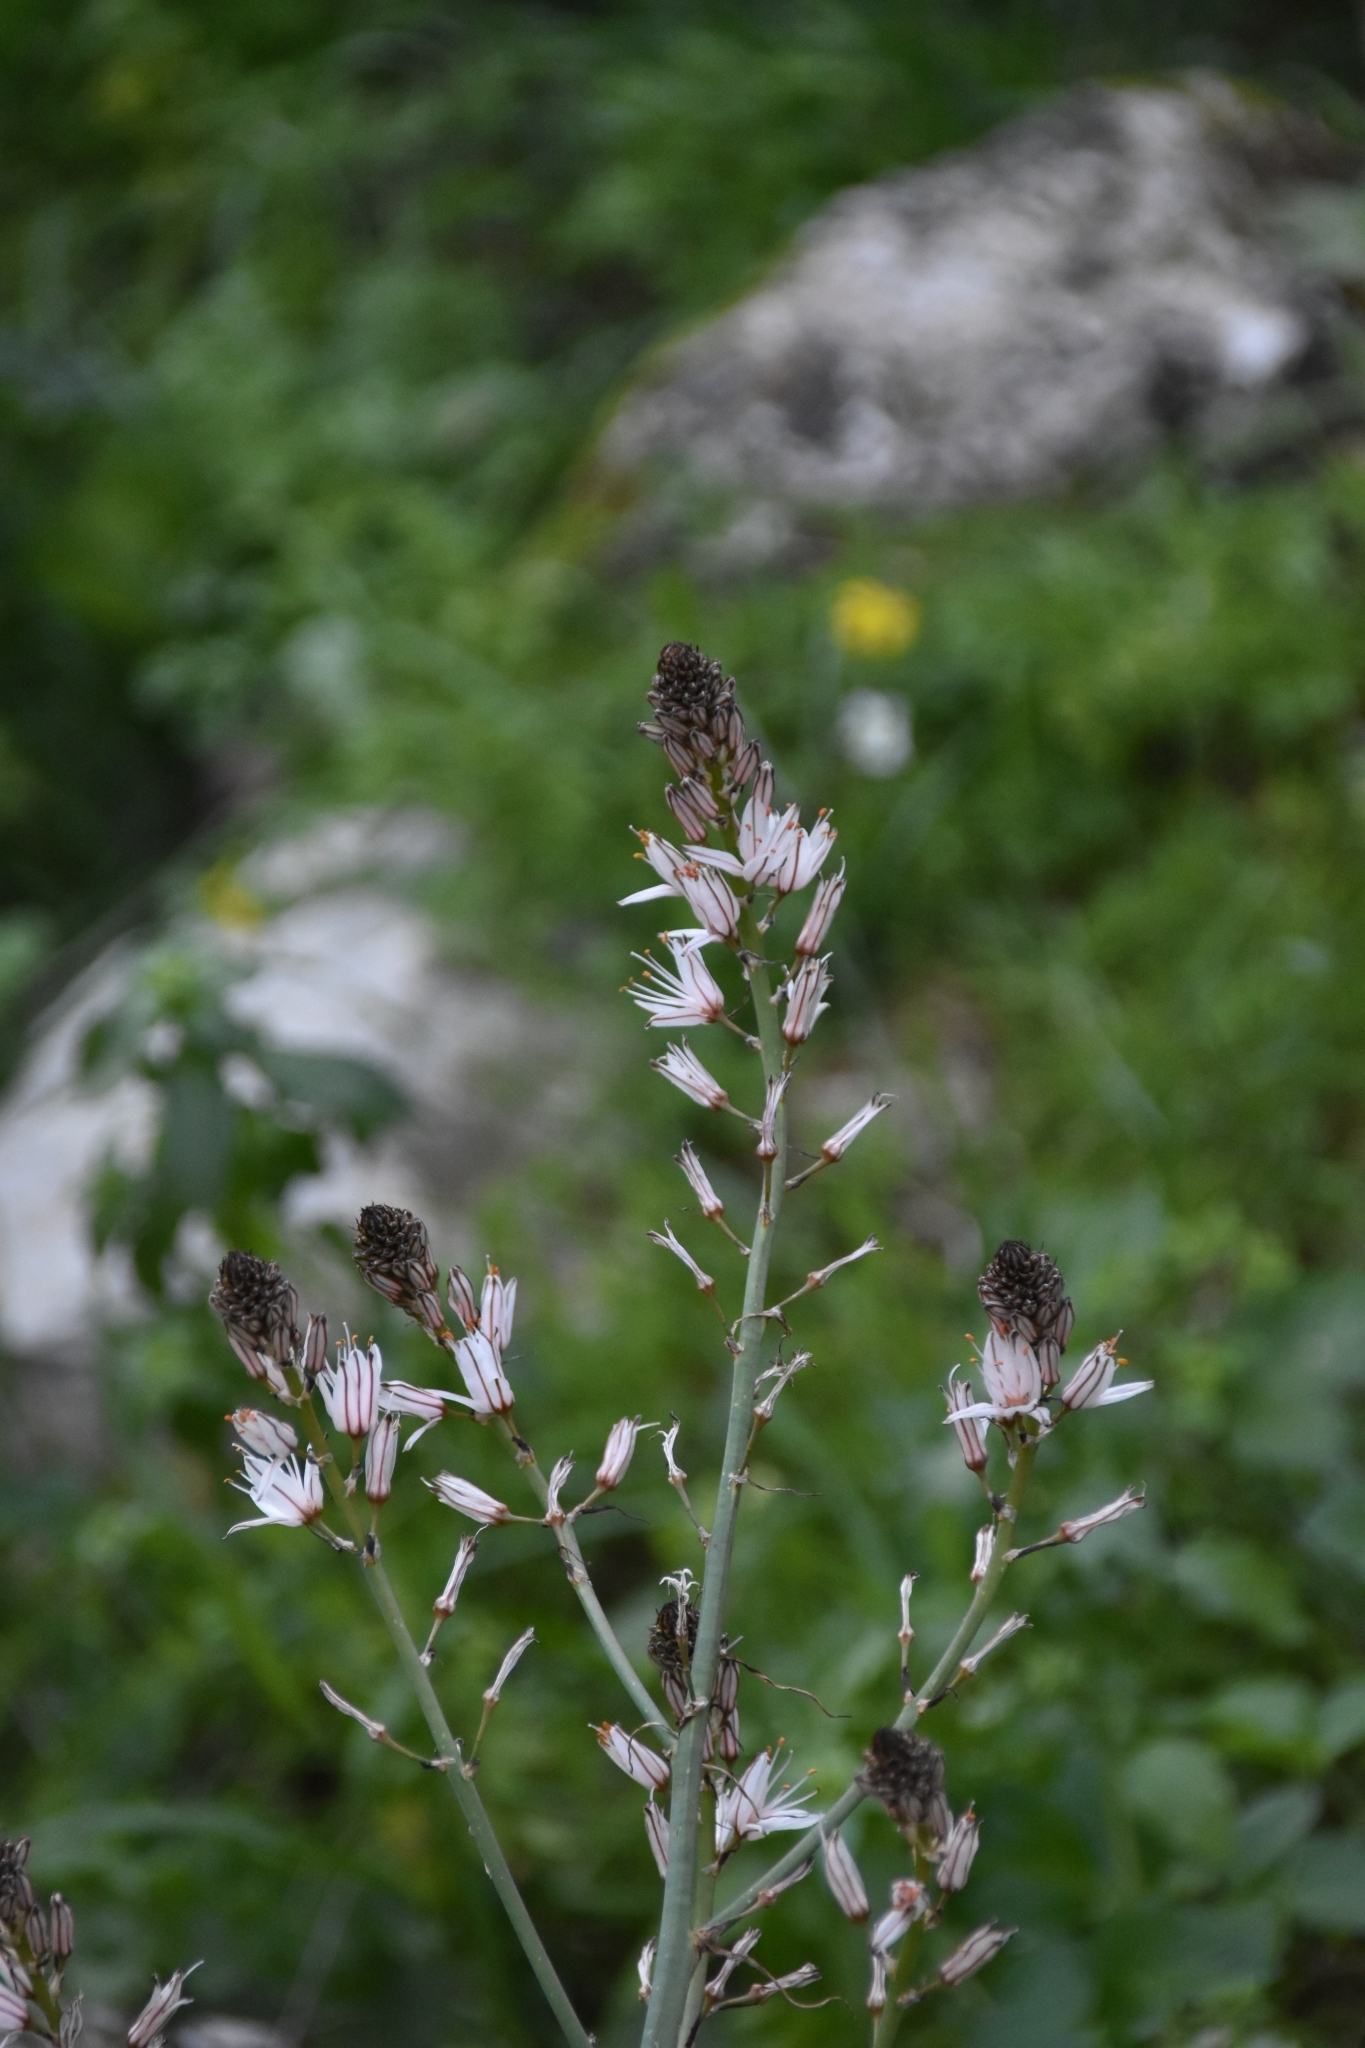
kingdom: Plantae
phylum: Tracheophyta
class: Liliopsida
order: Asparagales
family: Asphodelaceae
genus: Asphodelus
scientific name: Asphodelus ramosus
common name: Silverrod
